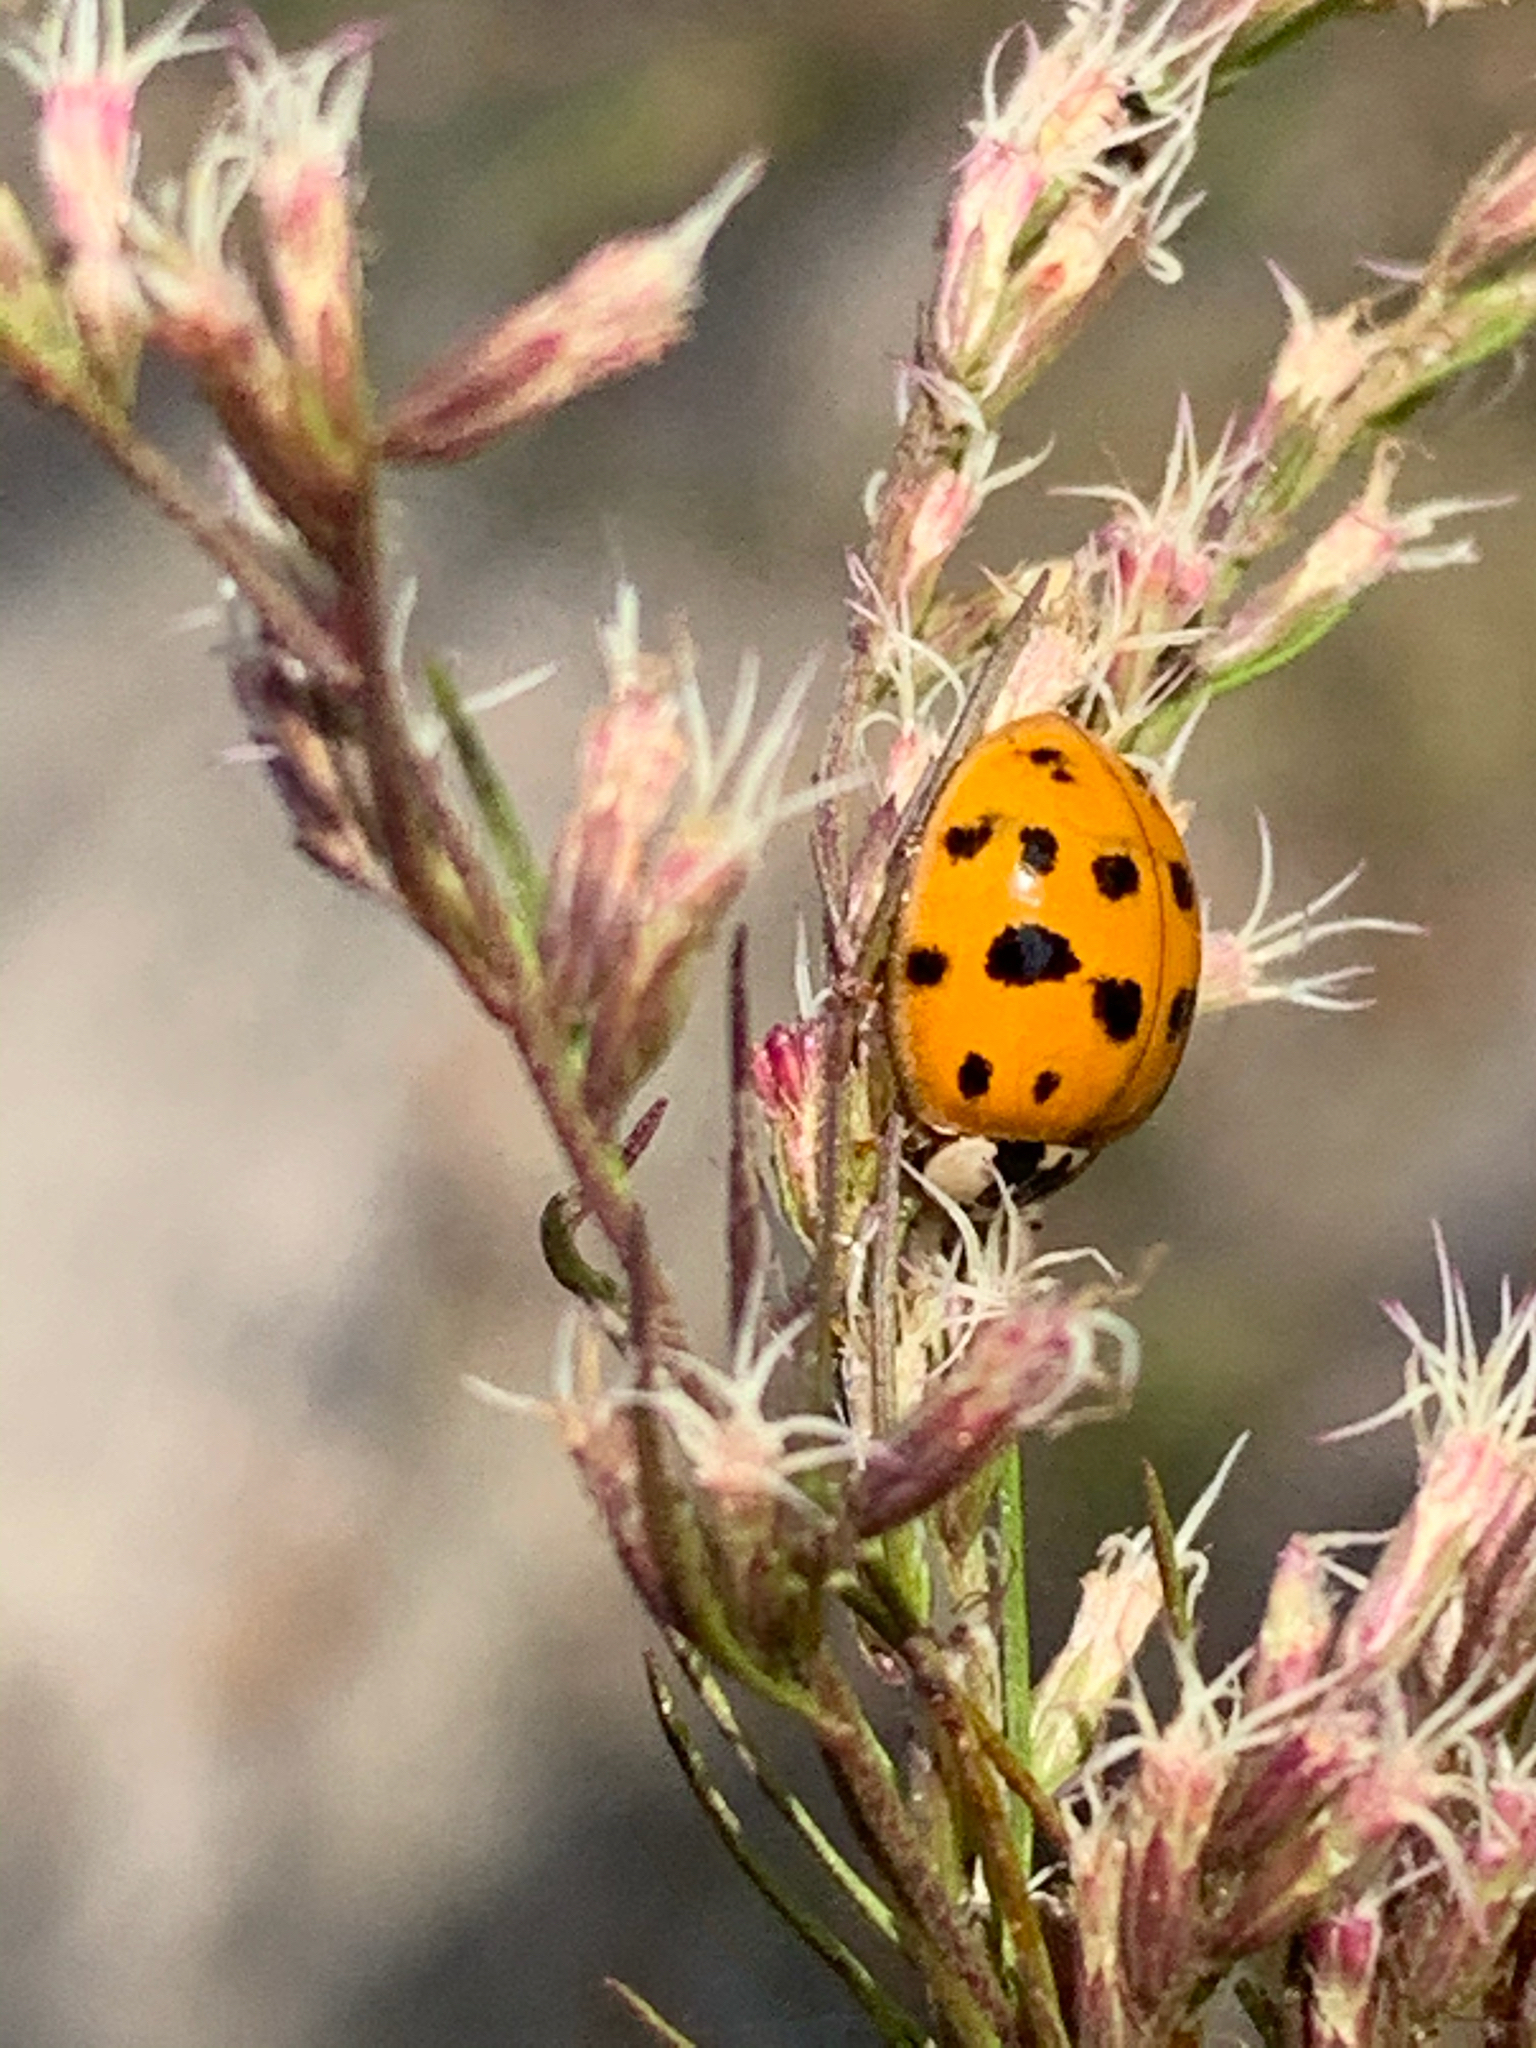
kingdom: Animalia
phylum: Arthropoda
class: Insecta
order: Coleoptera
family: Coccinellidae
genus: Harmonia
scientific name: Harmonia axyridis
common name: Harlequin ladybird
